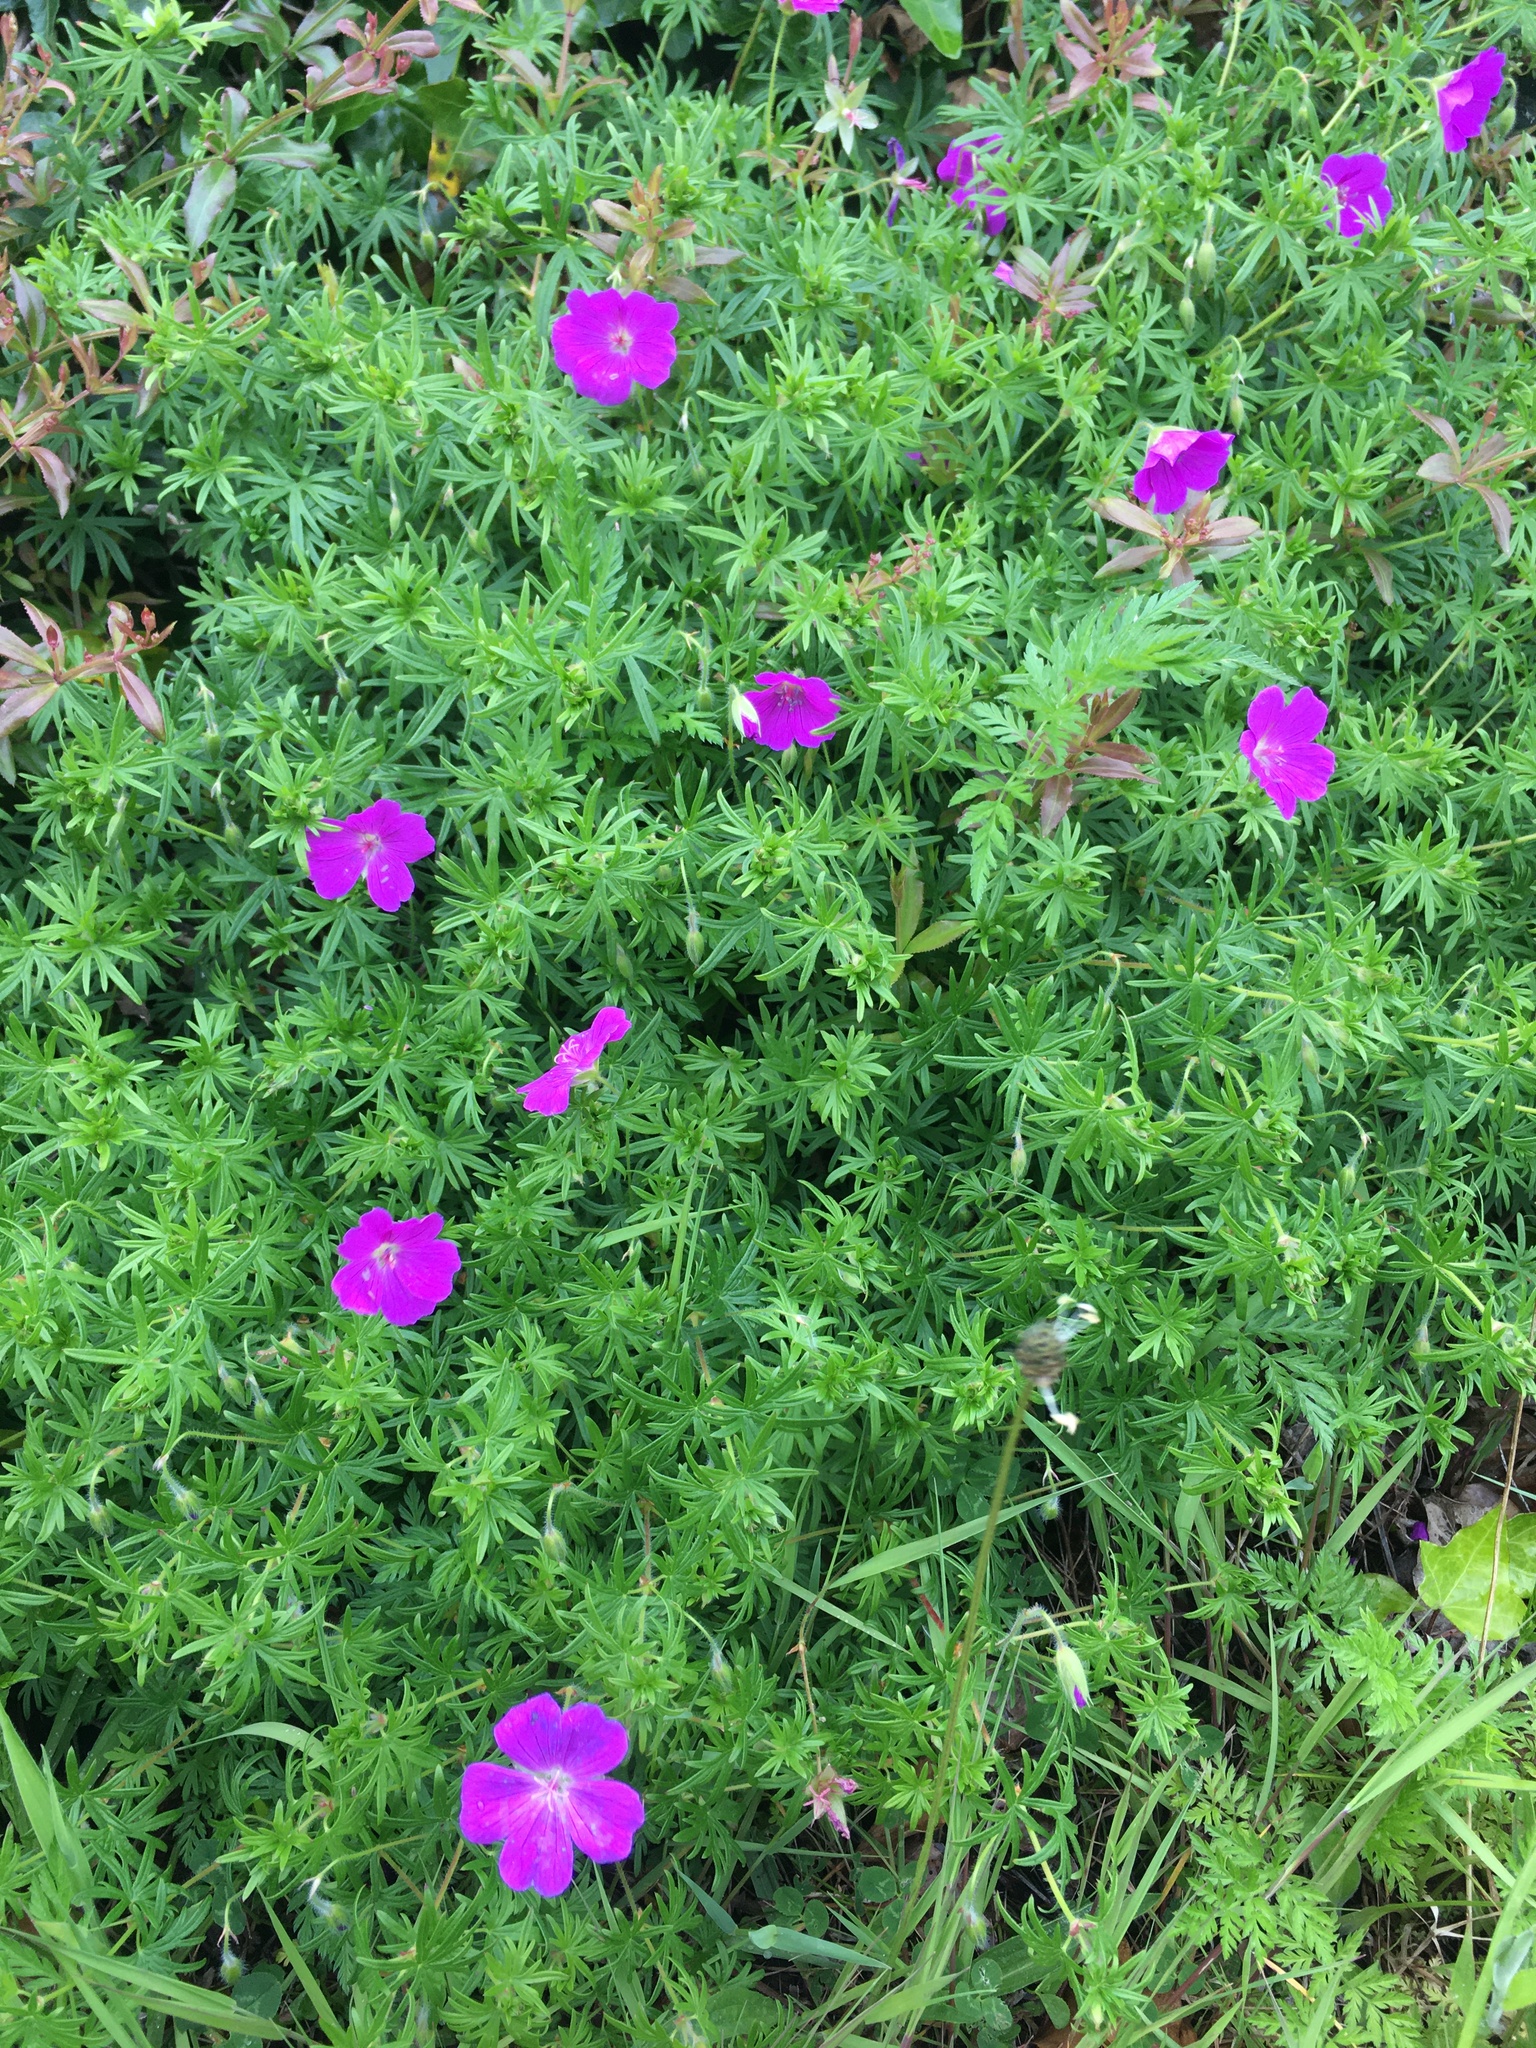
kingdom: Plantae
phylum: Tracheophyta
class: Magnoliopsida
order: Geraniales
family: Geraniaceae
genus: Geranium
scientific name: Geranium sanguineum
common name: Bloody crane's-bill
